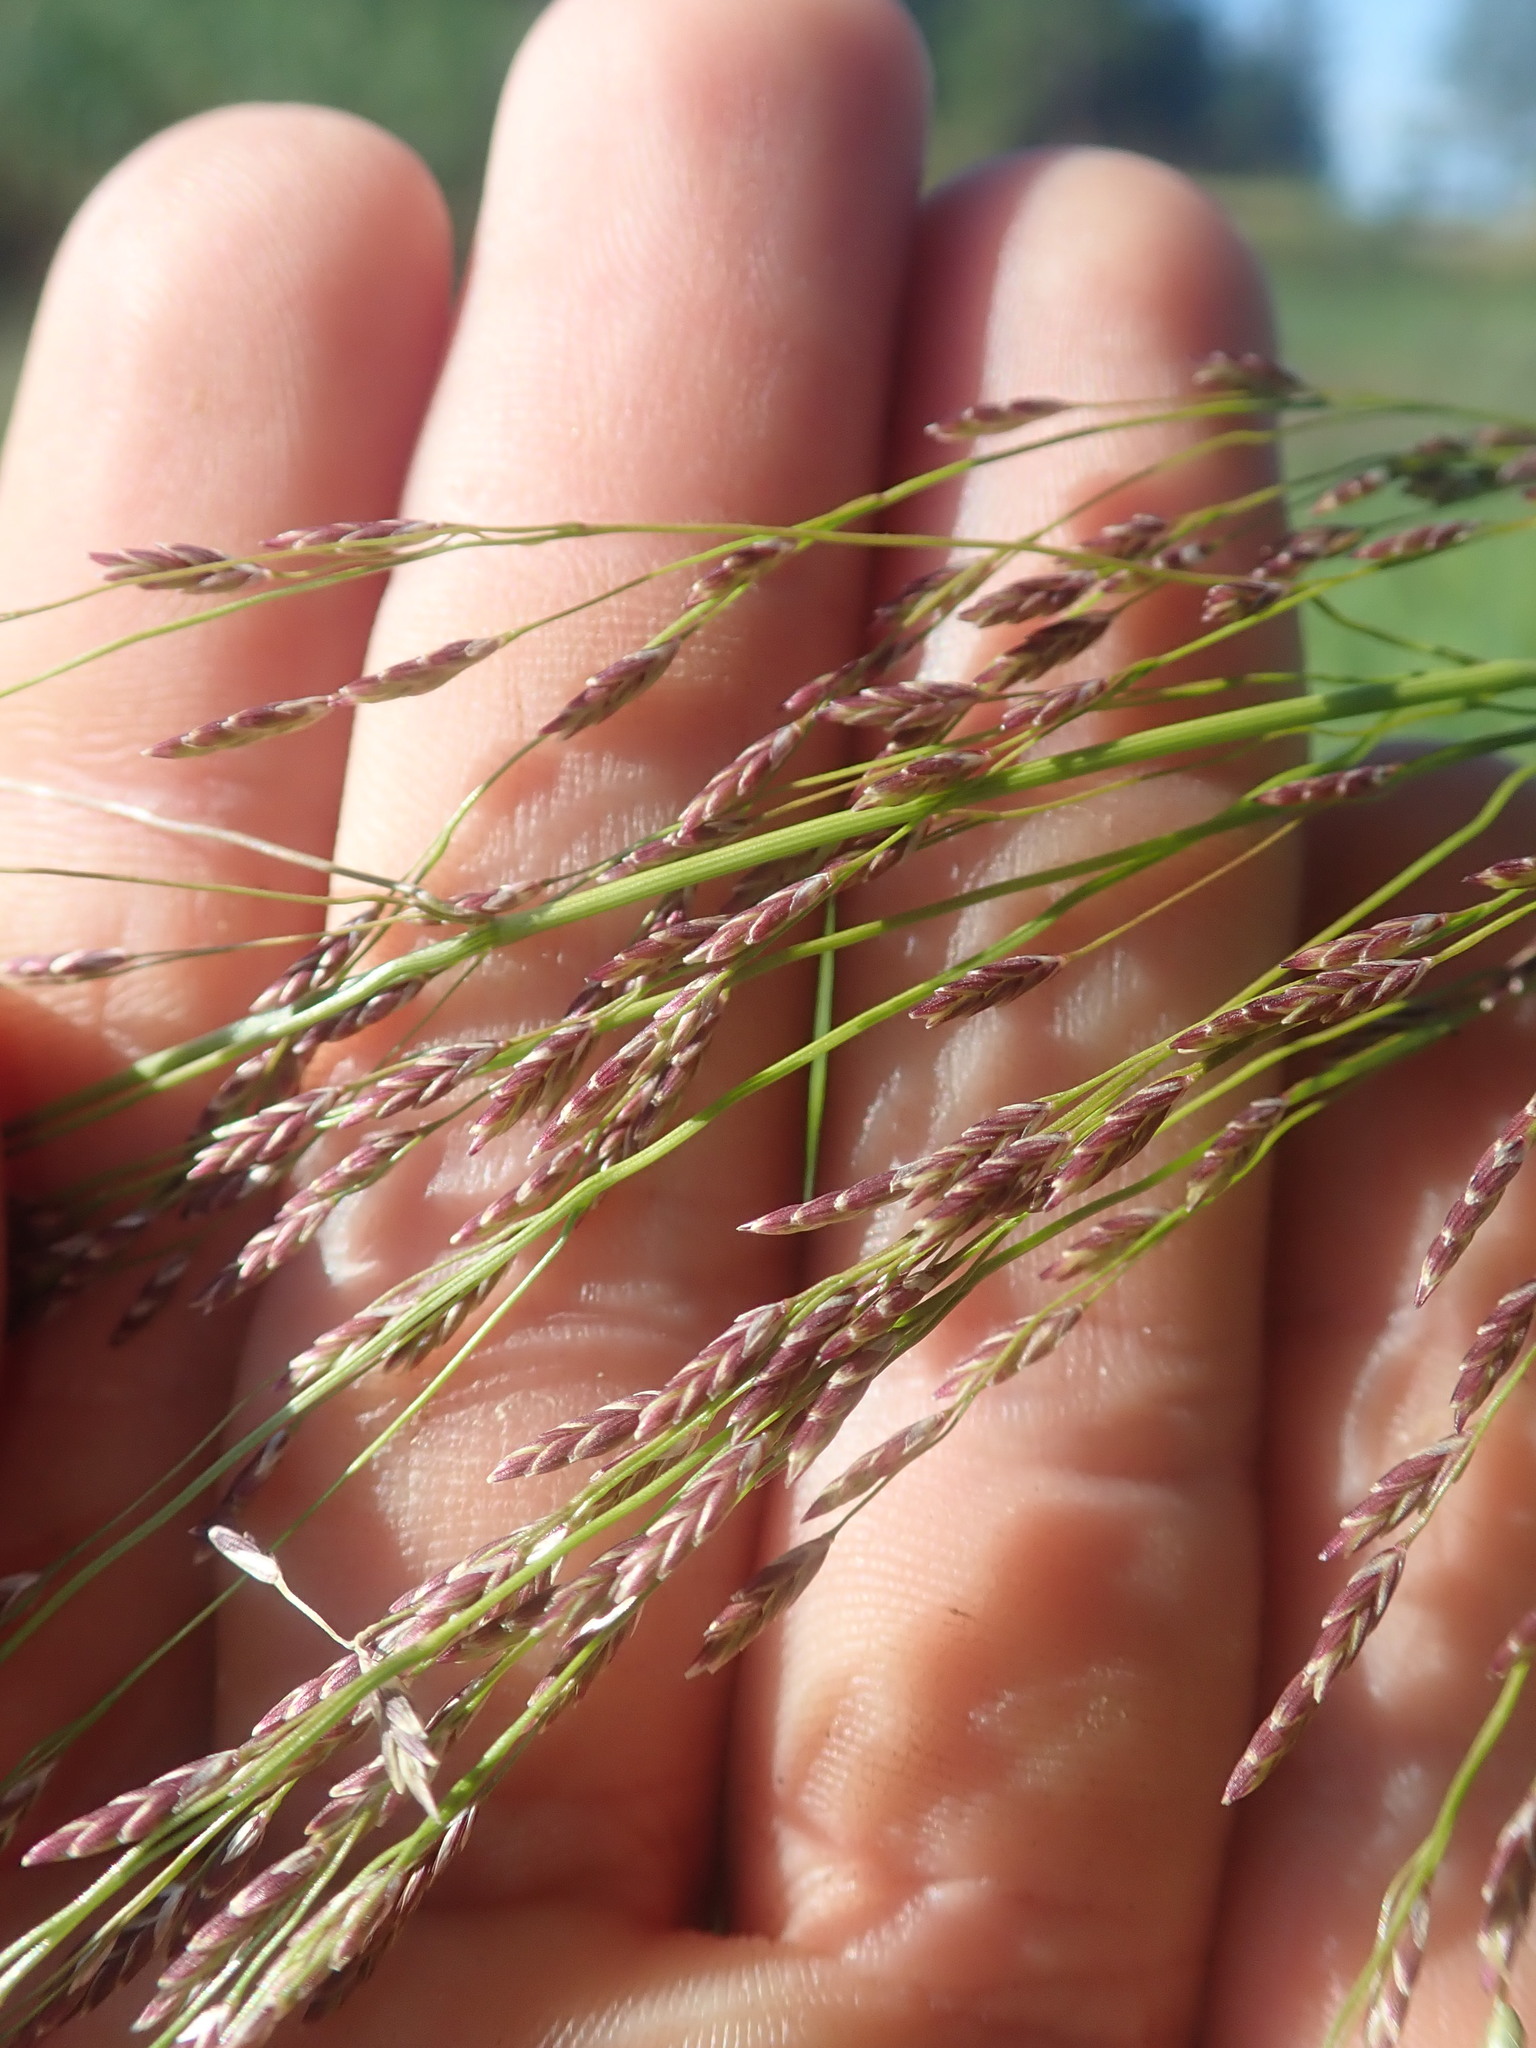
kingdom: Plantae
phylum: Tracheophyta
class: Liliopsida
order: Poales
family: Poaceae
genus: Glyceria
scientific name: Glyceria grandis
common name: American glyceria
